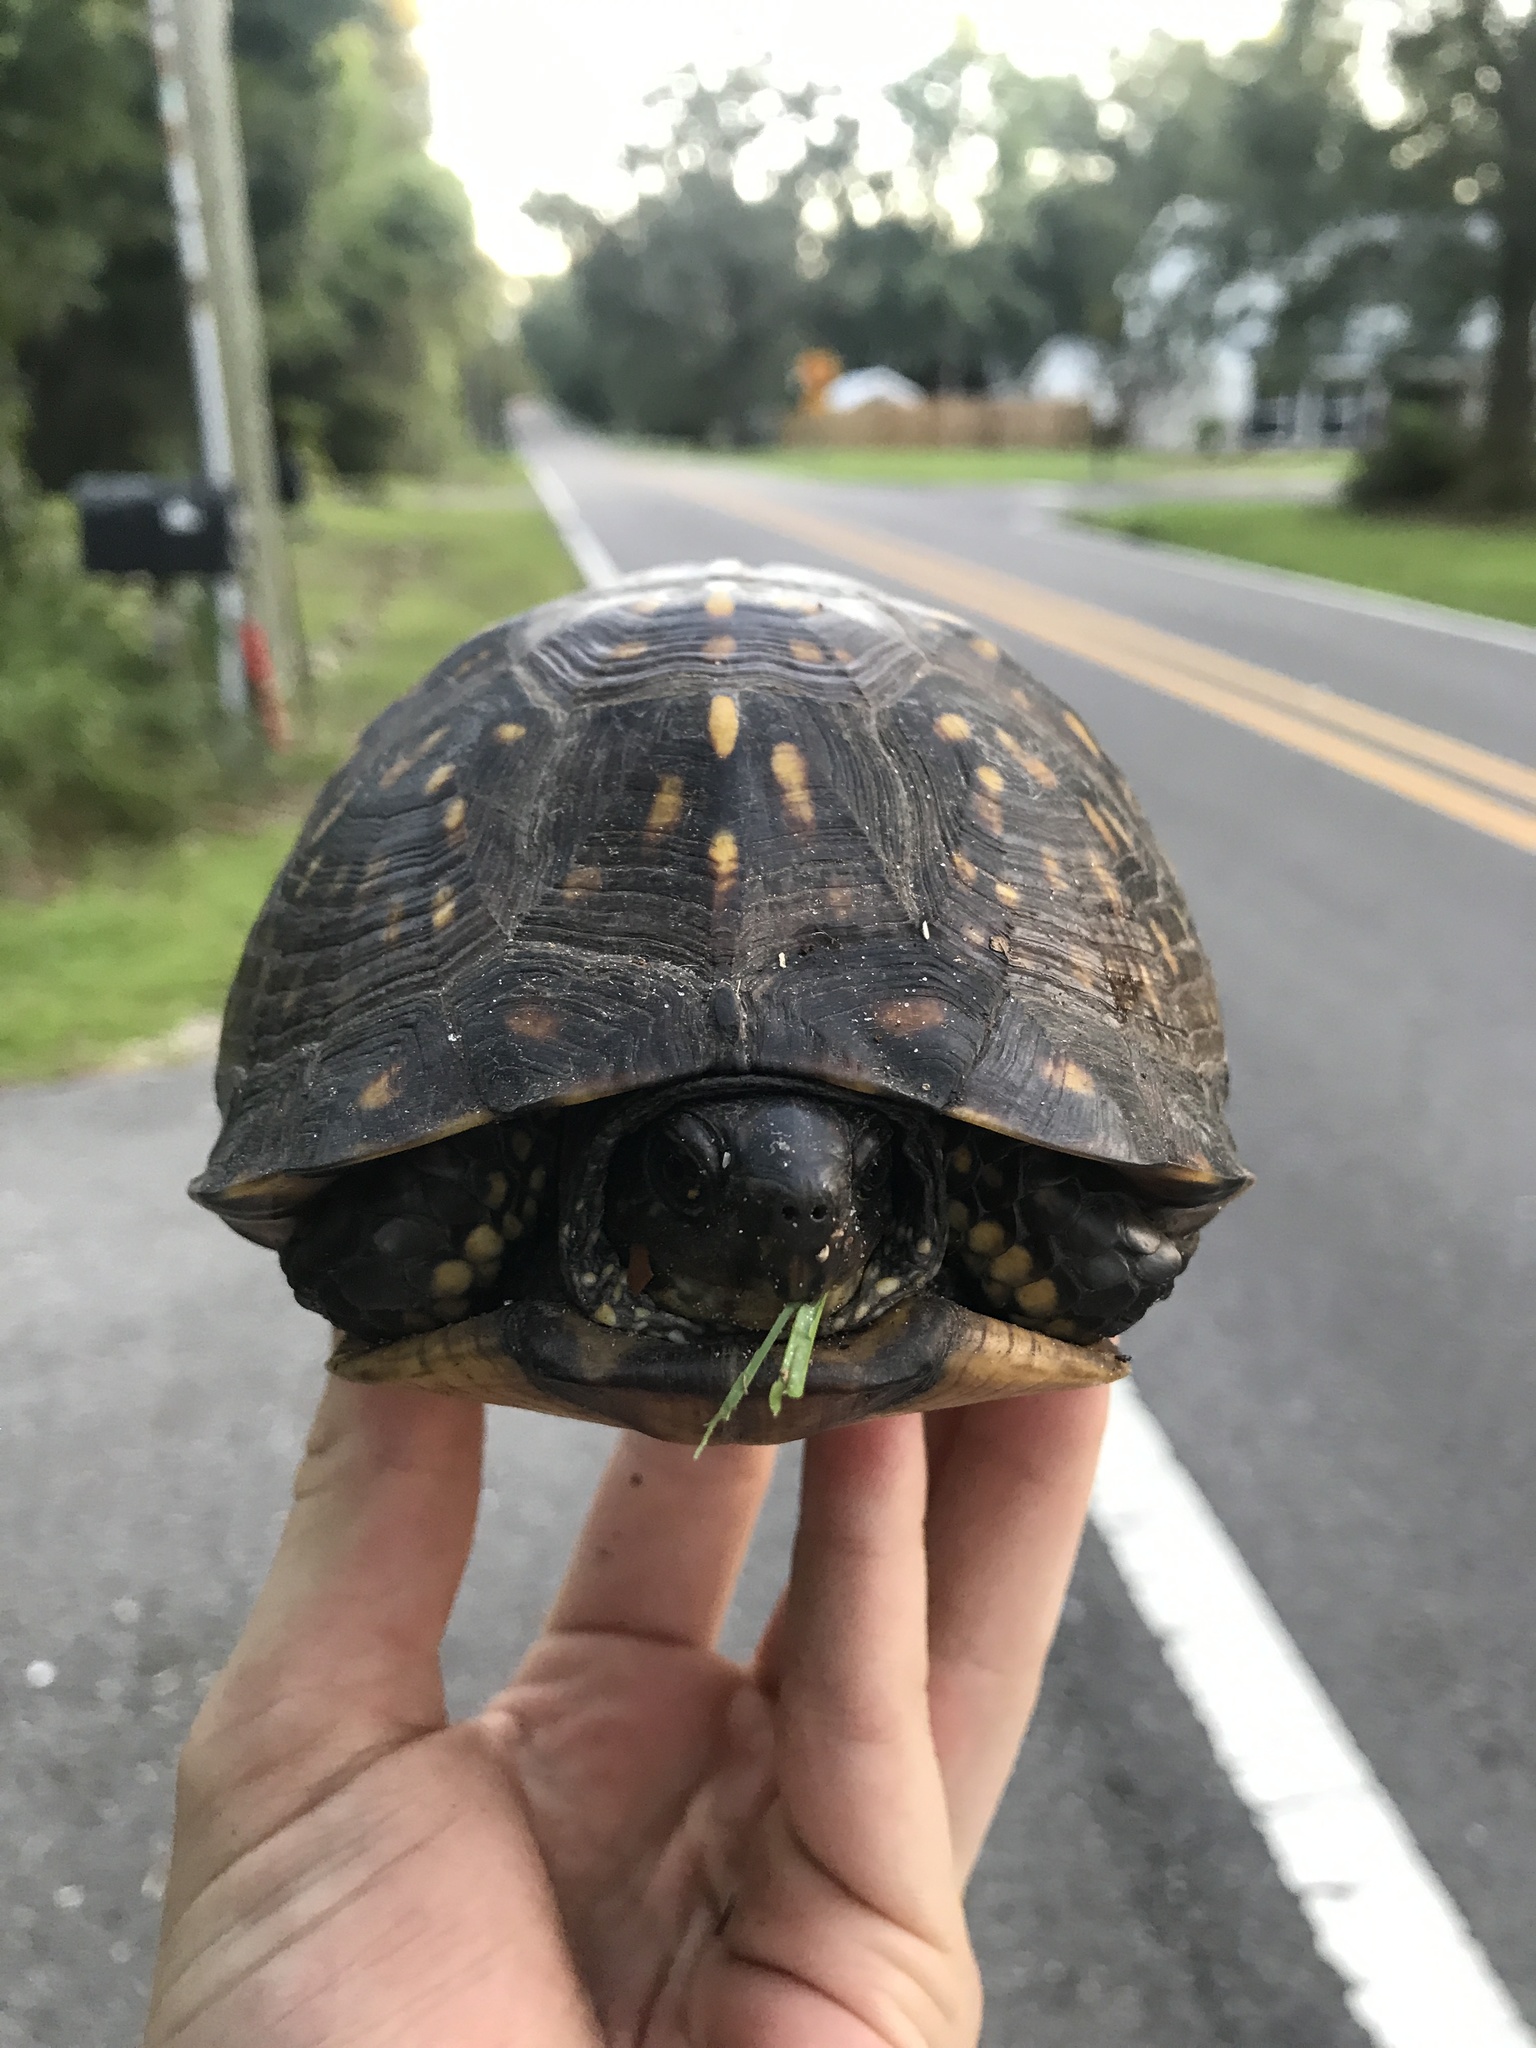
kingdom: Animalia
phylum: Chordata
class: Testudines
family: Emydidae
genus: Terrapene
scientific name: Terrapene carolina
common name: Common box turtle
